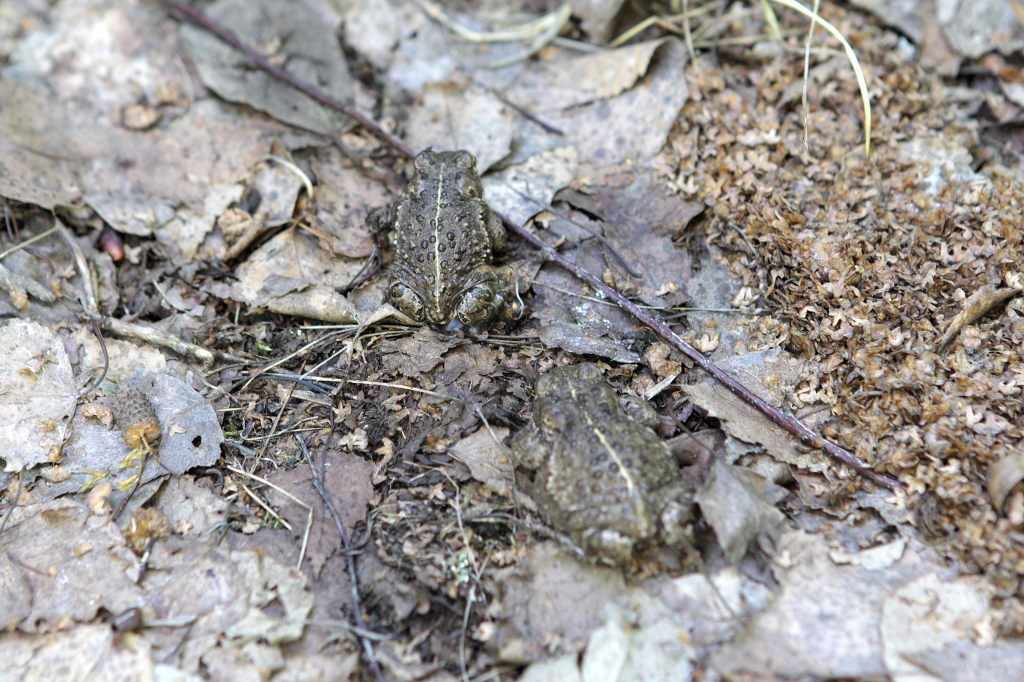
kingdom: Animalia
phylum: Chordata
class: Amphibia
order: Anura
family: Bufonidae
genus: Epidalea
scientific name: Epidalea calamita
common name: Natterjack toad
